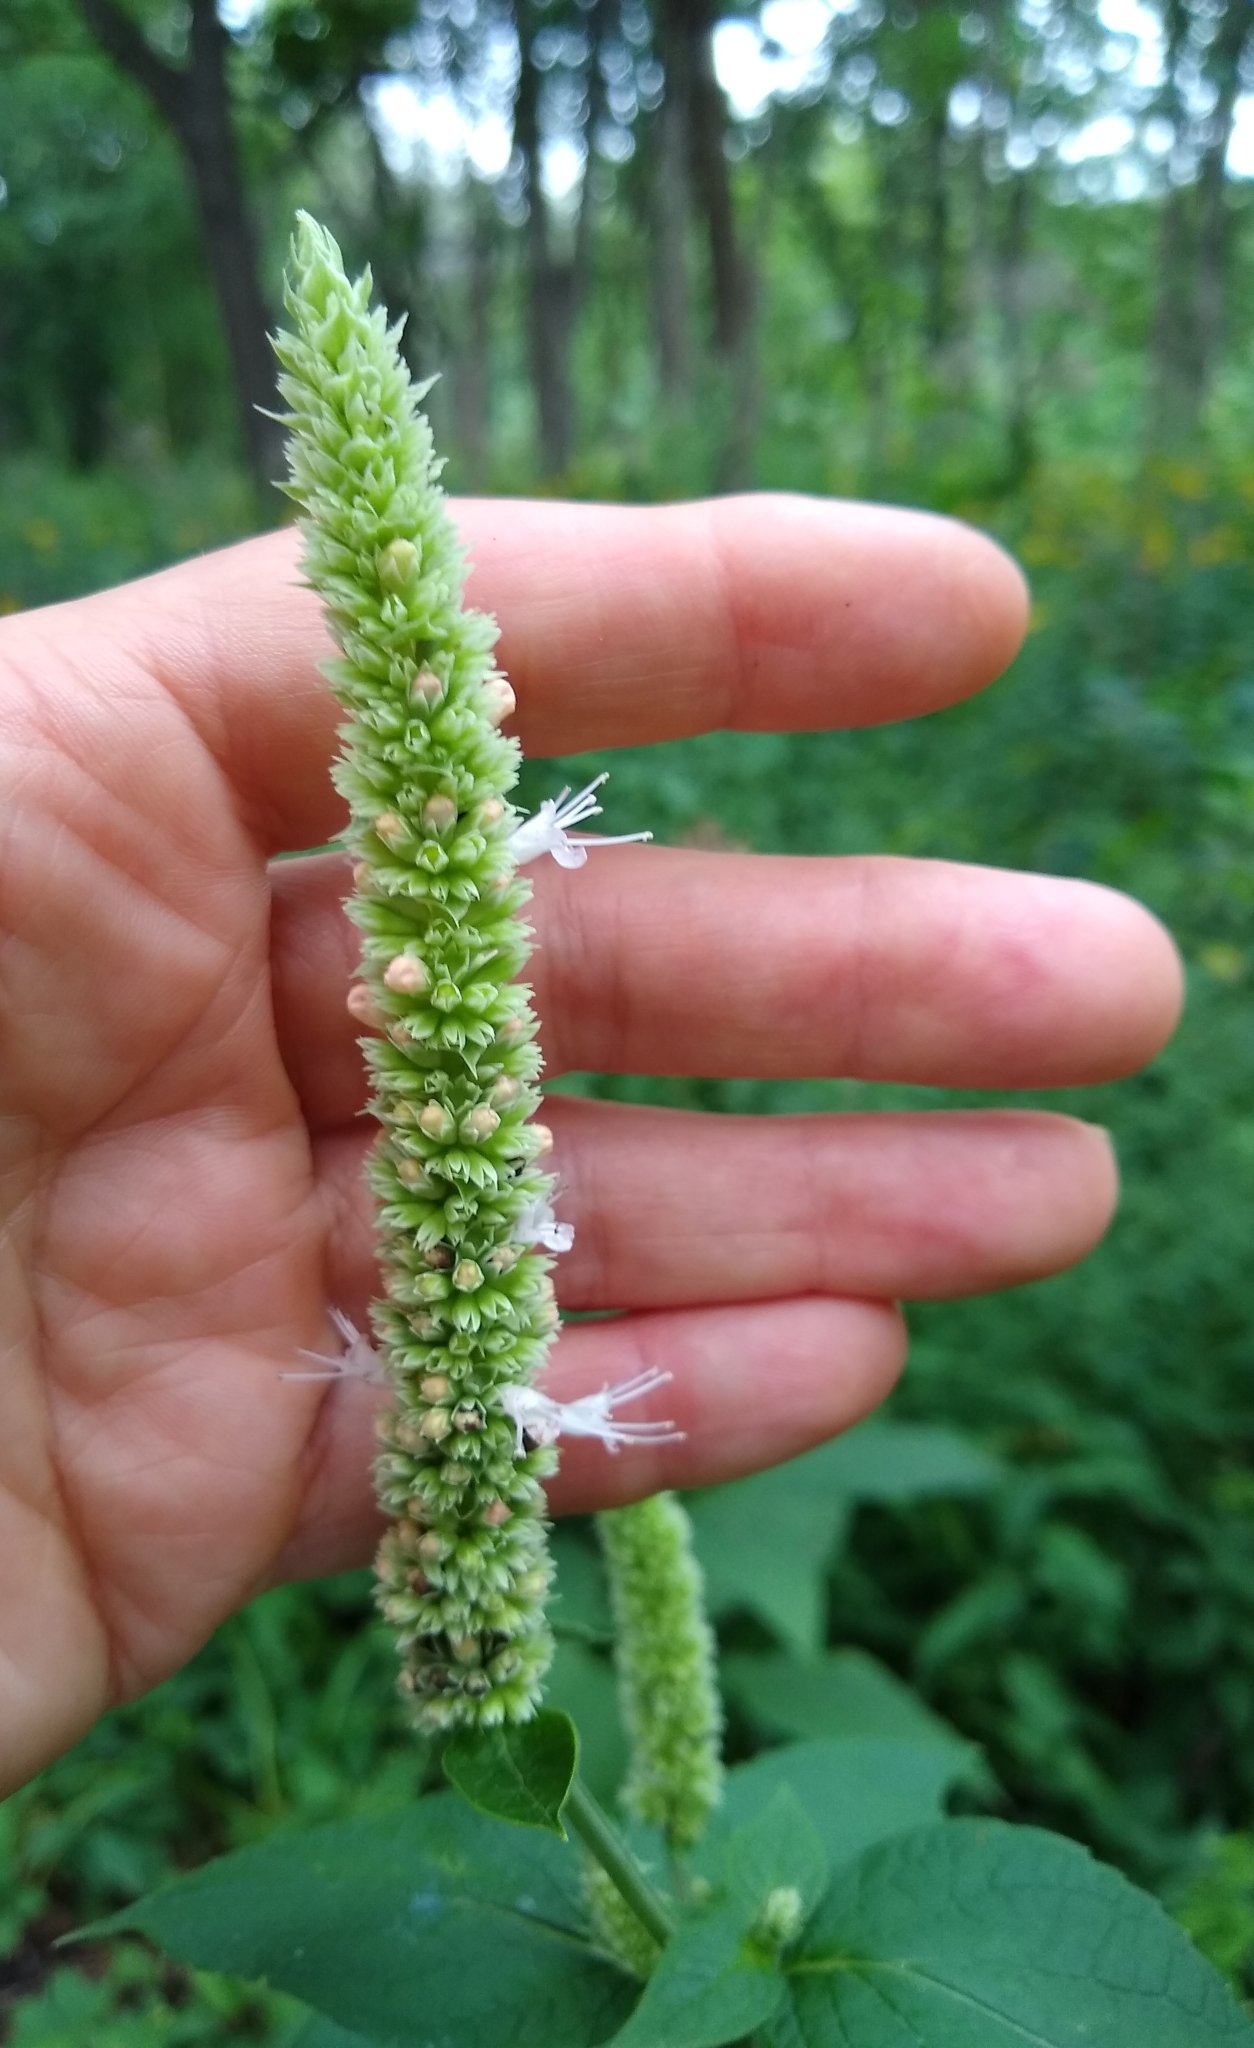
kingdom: Plantae
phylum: Tracheophyta
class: Magnoliopsida
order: Lamiales
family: Lamiaceae
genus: Agastache
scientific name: Agastache scrophulariifolia
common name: Figwort giant hyssop
